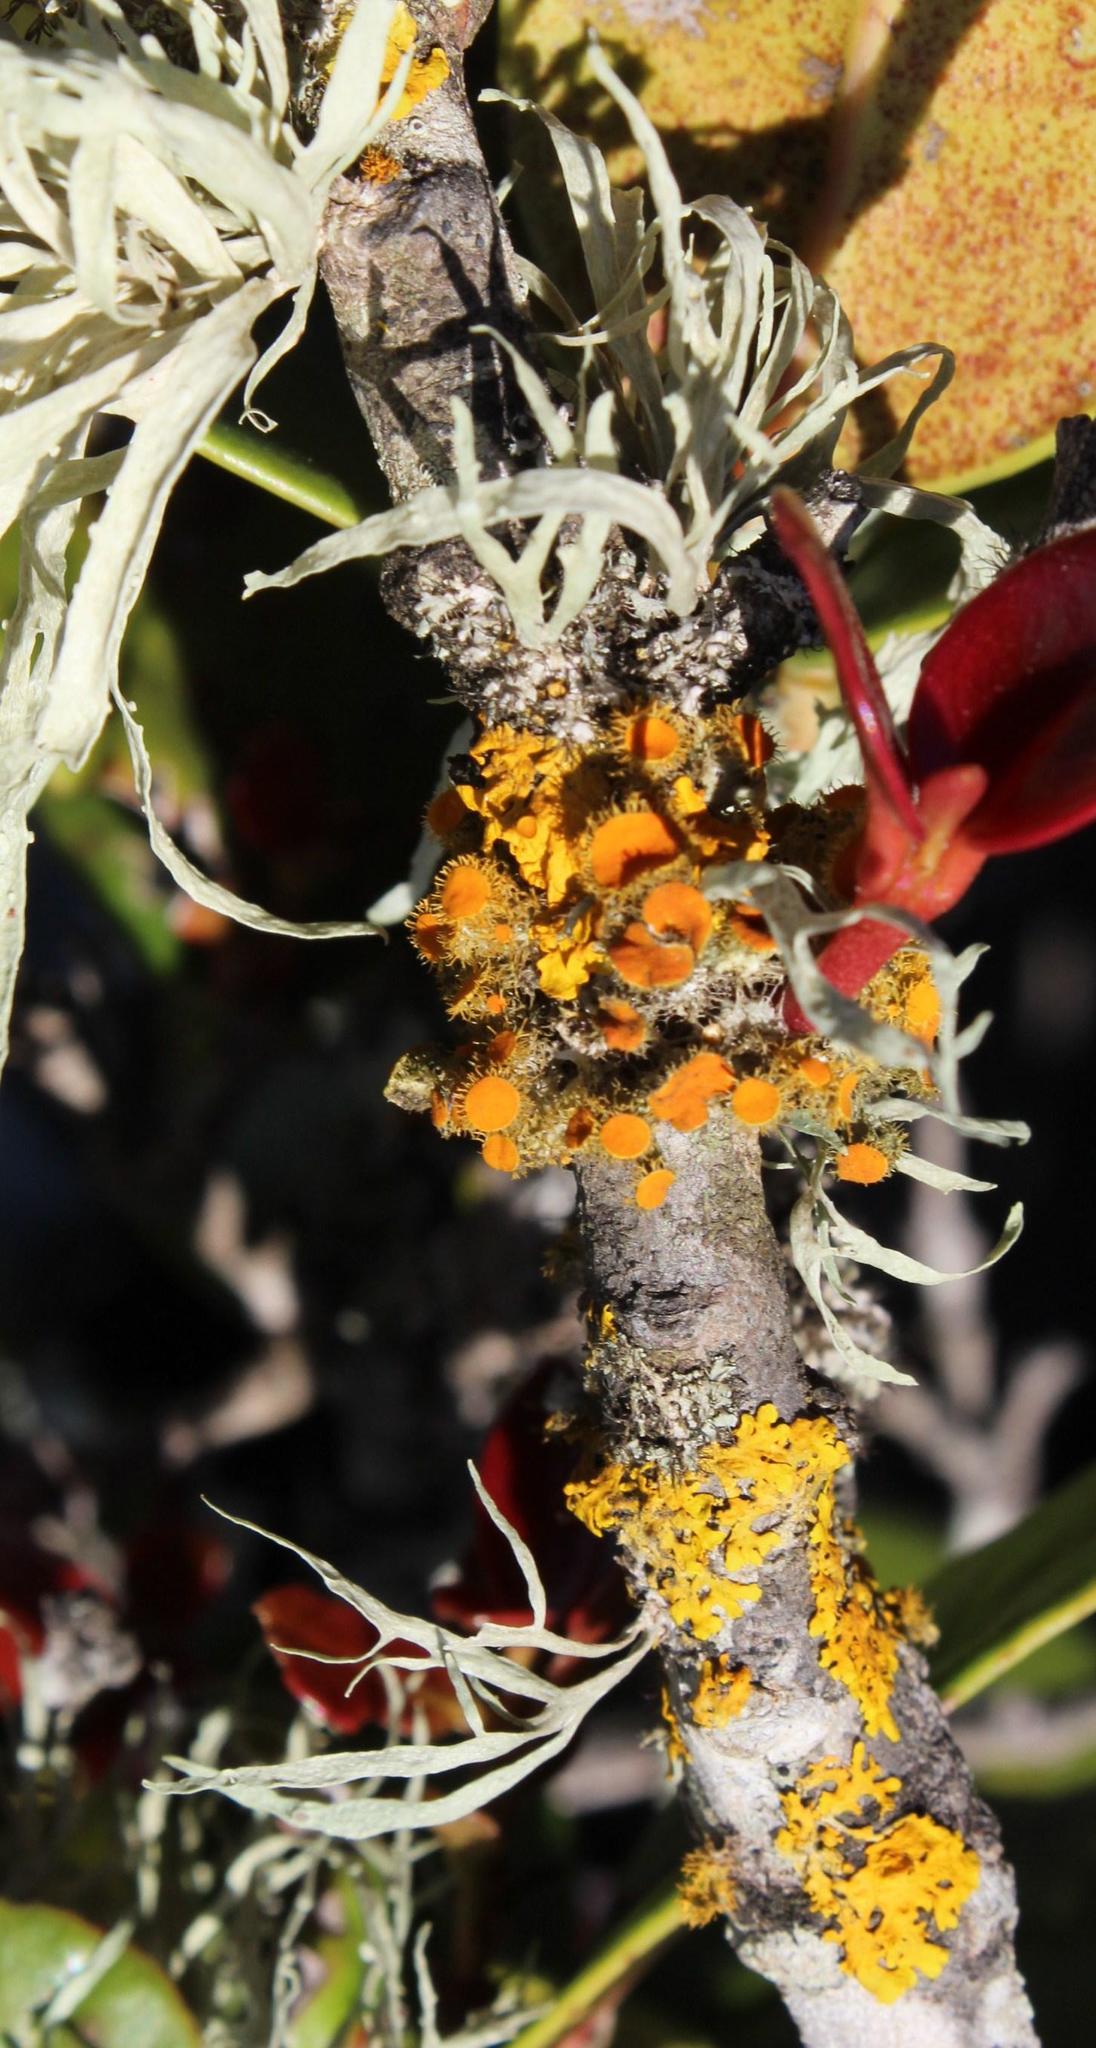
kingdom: Fungi
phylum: Ascomycota
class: Lecanoromycetes
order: Teloschistales
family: Teloschistaceae
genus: Niorma
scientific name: Niorma chrysophthalma
